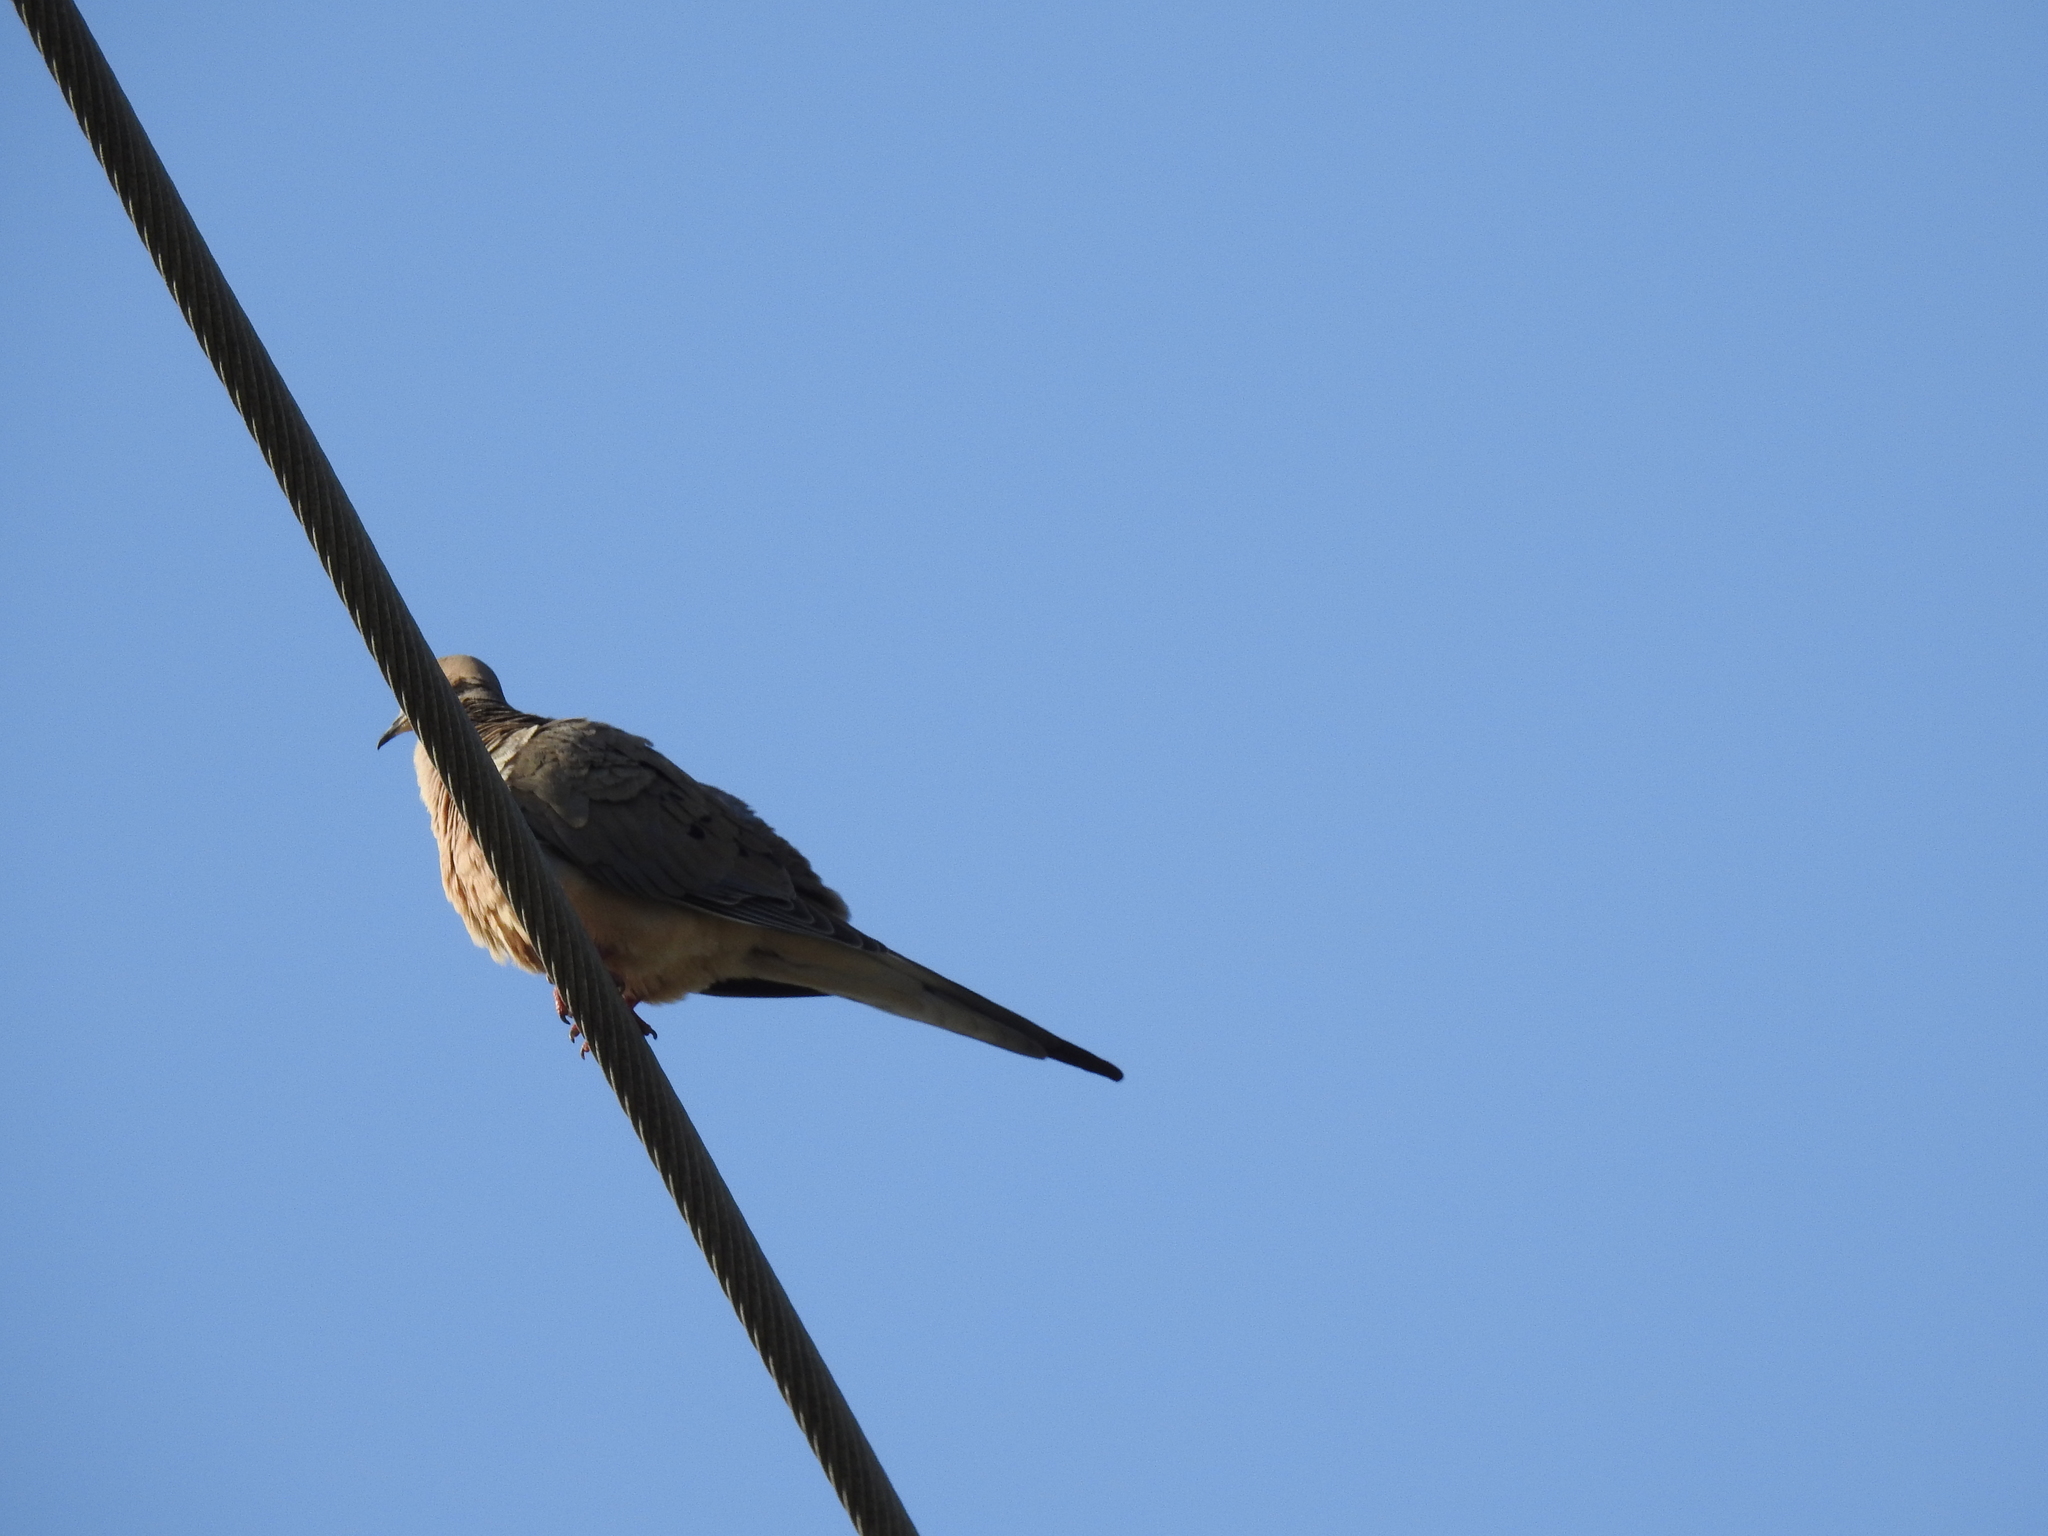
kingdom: Animalia
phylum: Chordata
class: Aves
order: Columbiformes
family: Columbidae
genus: Zenaida
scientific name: Zenaida macroura
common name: Mourning dove
